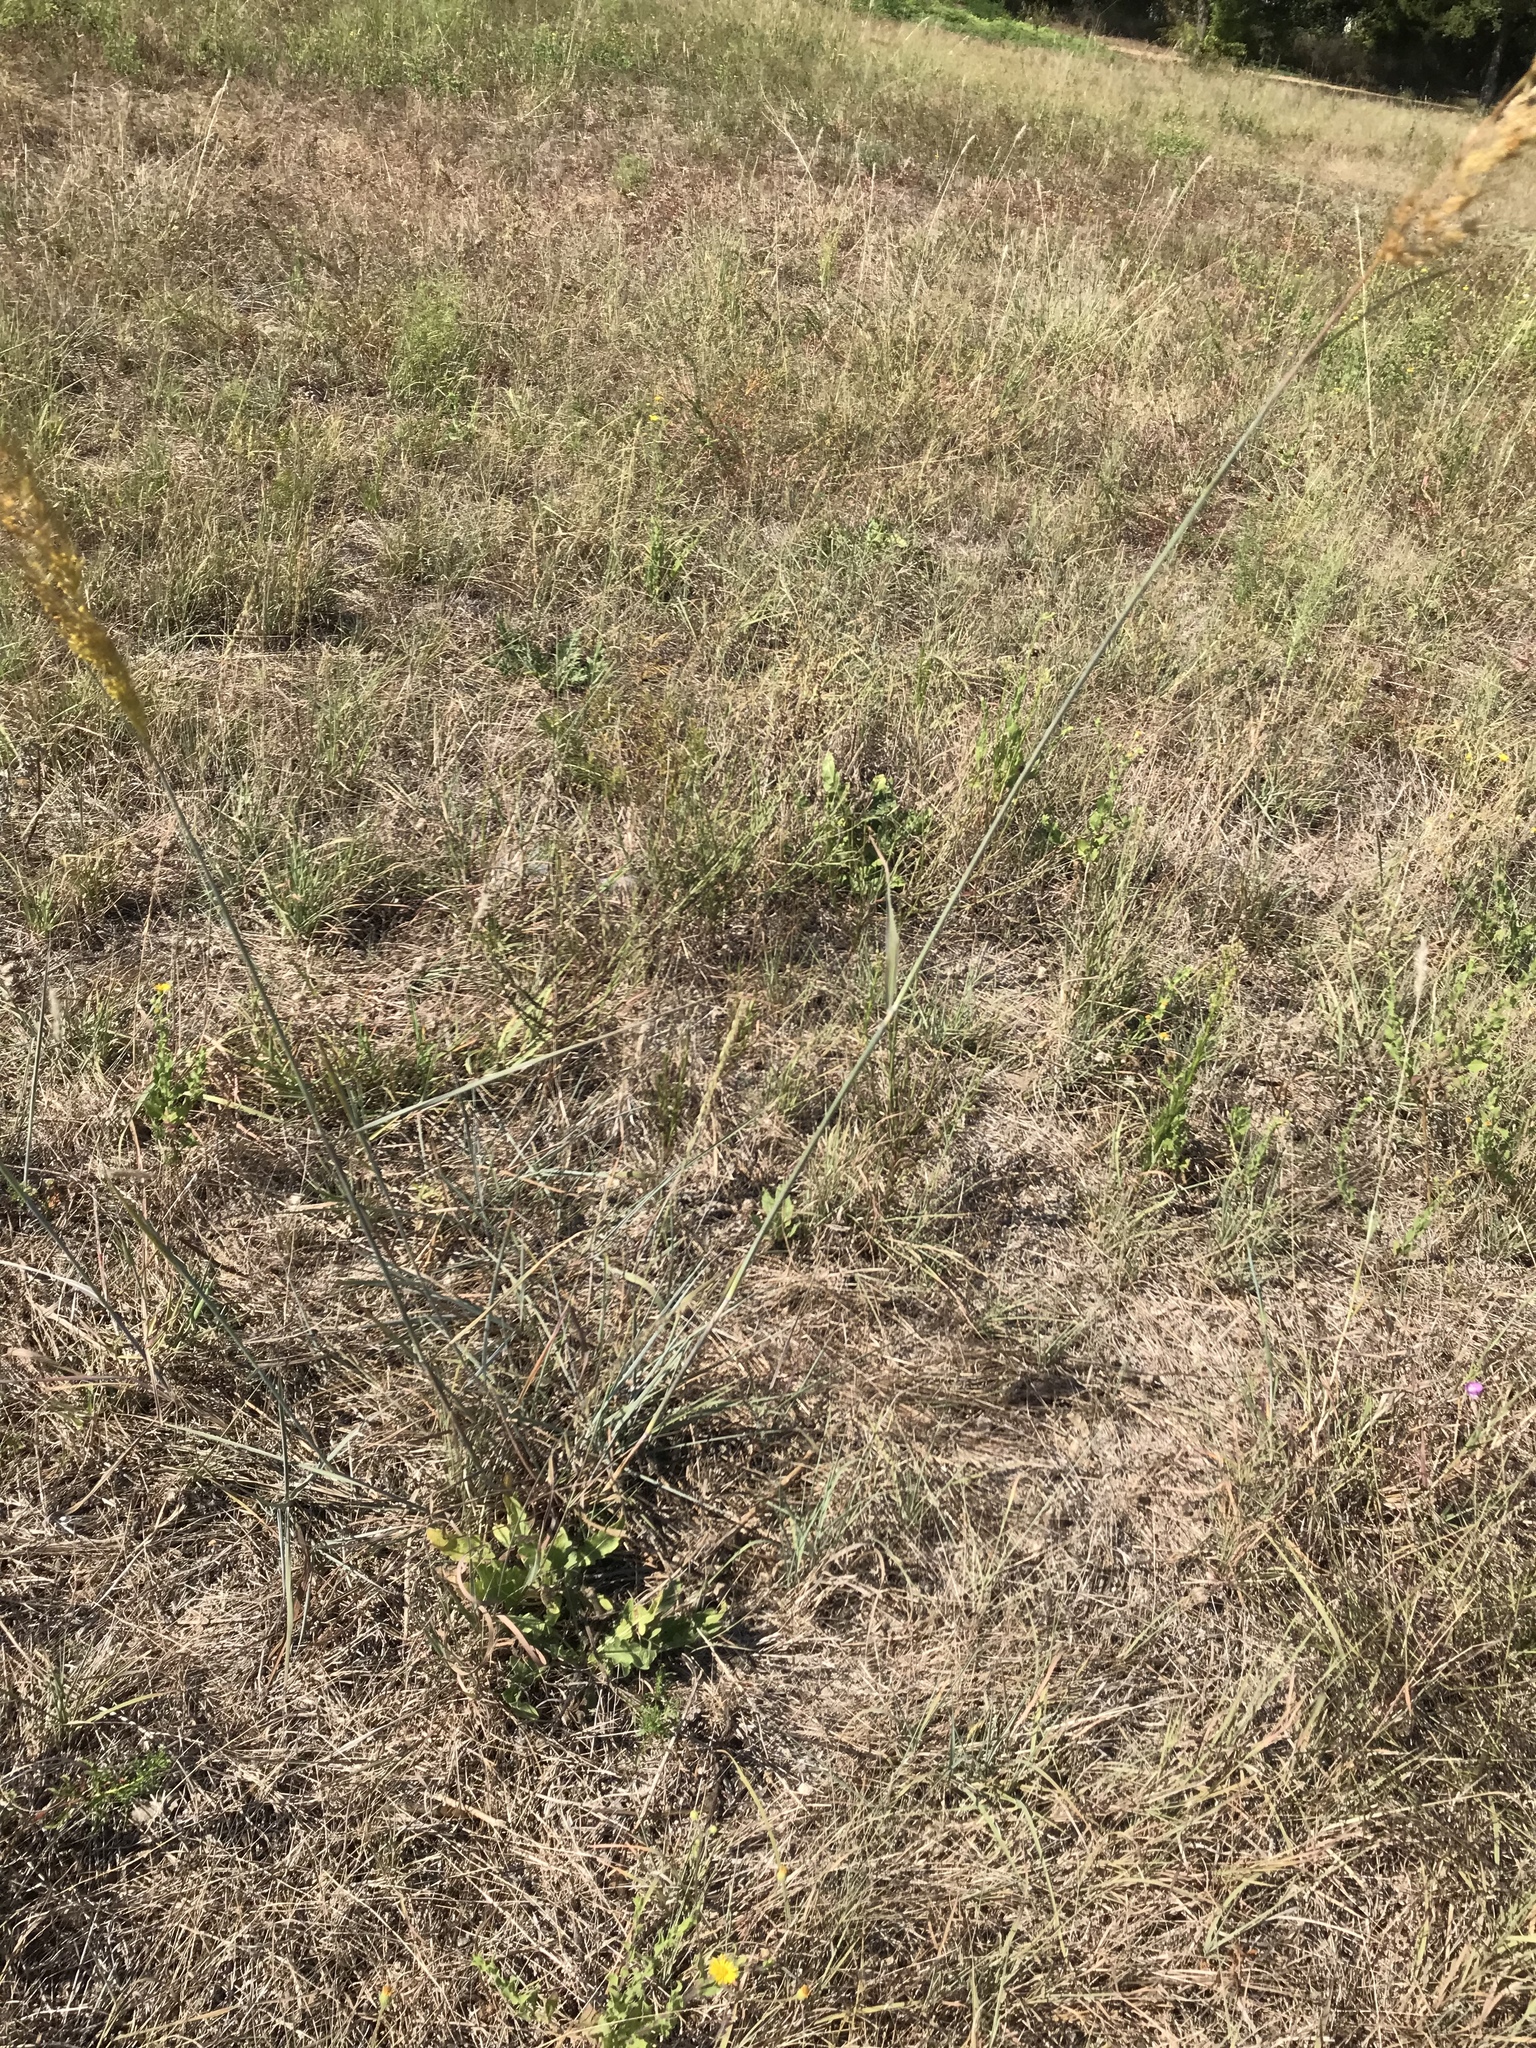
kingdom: Plantae
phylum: Tracheophyta
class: Liliopsida
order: Poales
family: Poaceae
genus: Sorghastrum
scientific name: Sorghastrum nutans
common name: Indian grass
